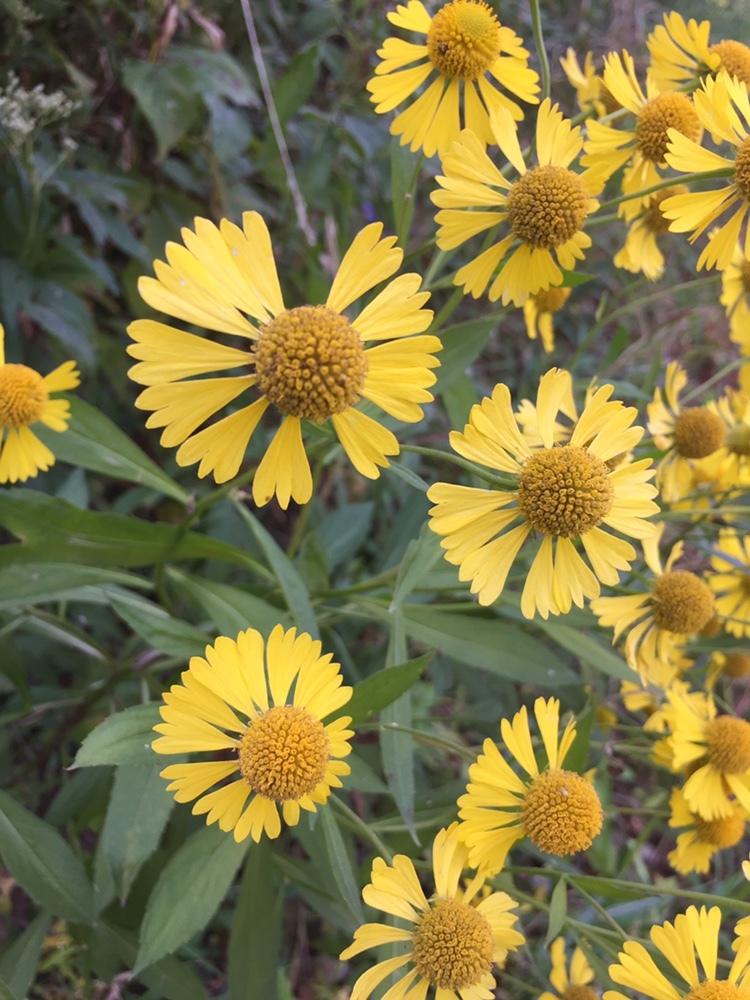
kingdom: Plantae
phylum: Tracheophyta
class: Magnoliopsida
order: Asterales
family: Asteraceae
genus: Helenium
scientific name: Helenium autumnale
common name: Sneezeweed
